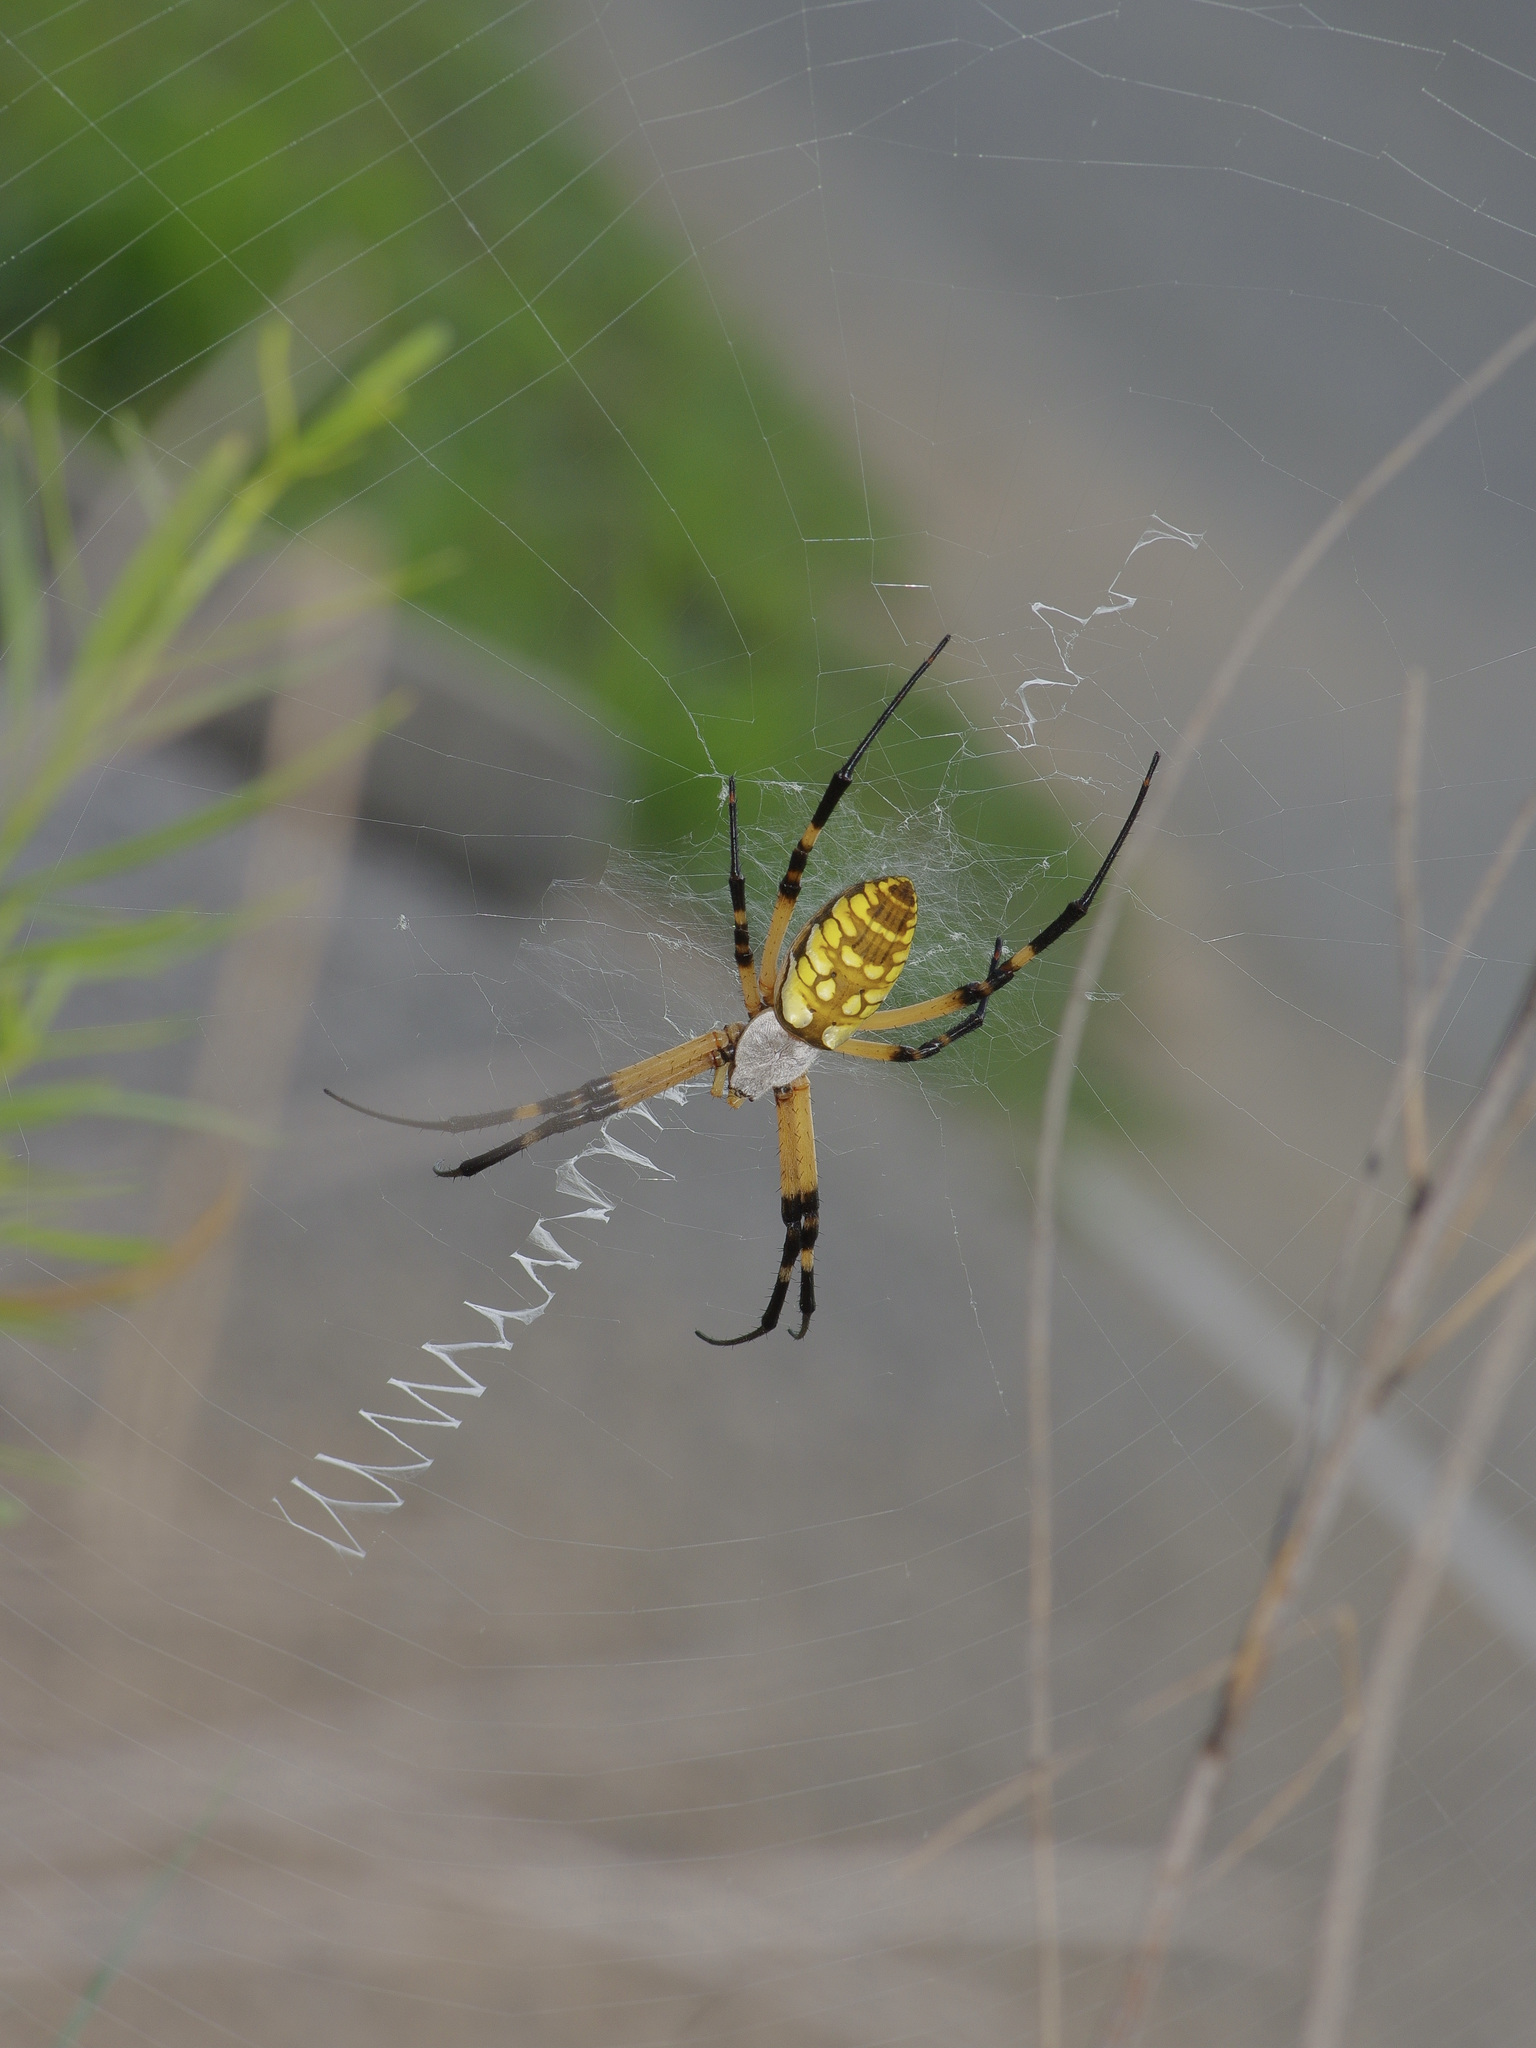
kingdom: Animalia
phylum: Arthropoda
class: Arachnida
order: Araneae
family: Araneidae
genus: Argiope
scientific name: Argiope aurantia
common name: Orb weavers
